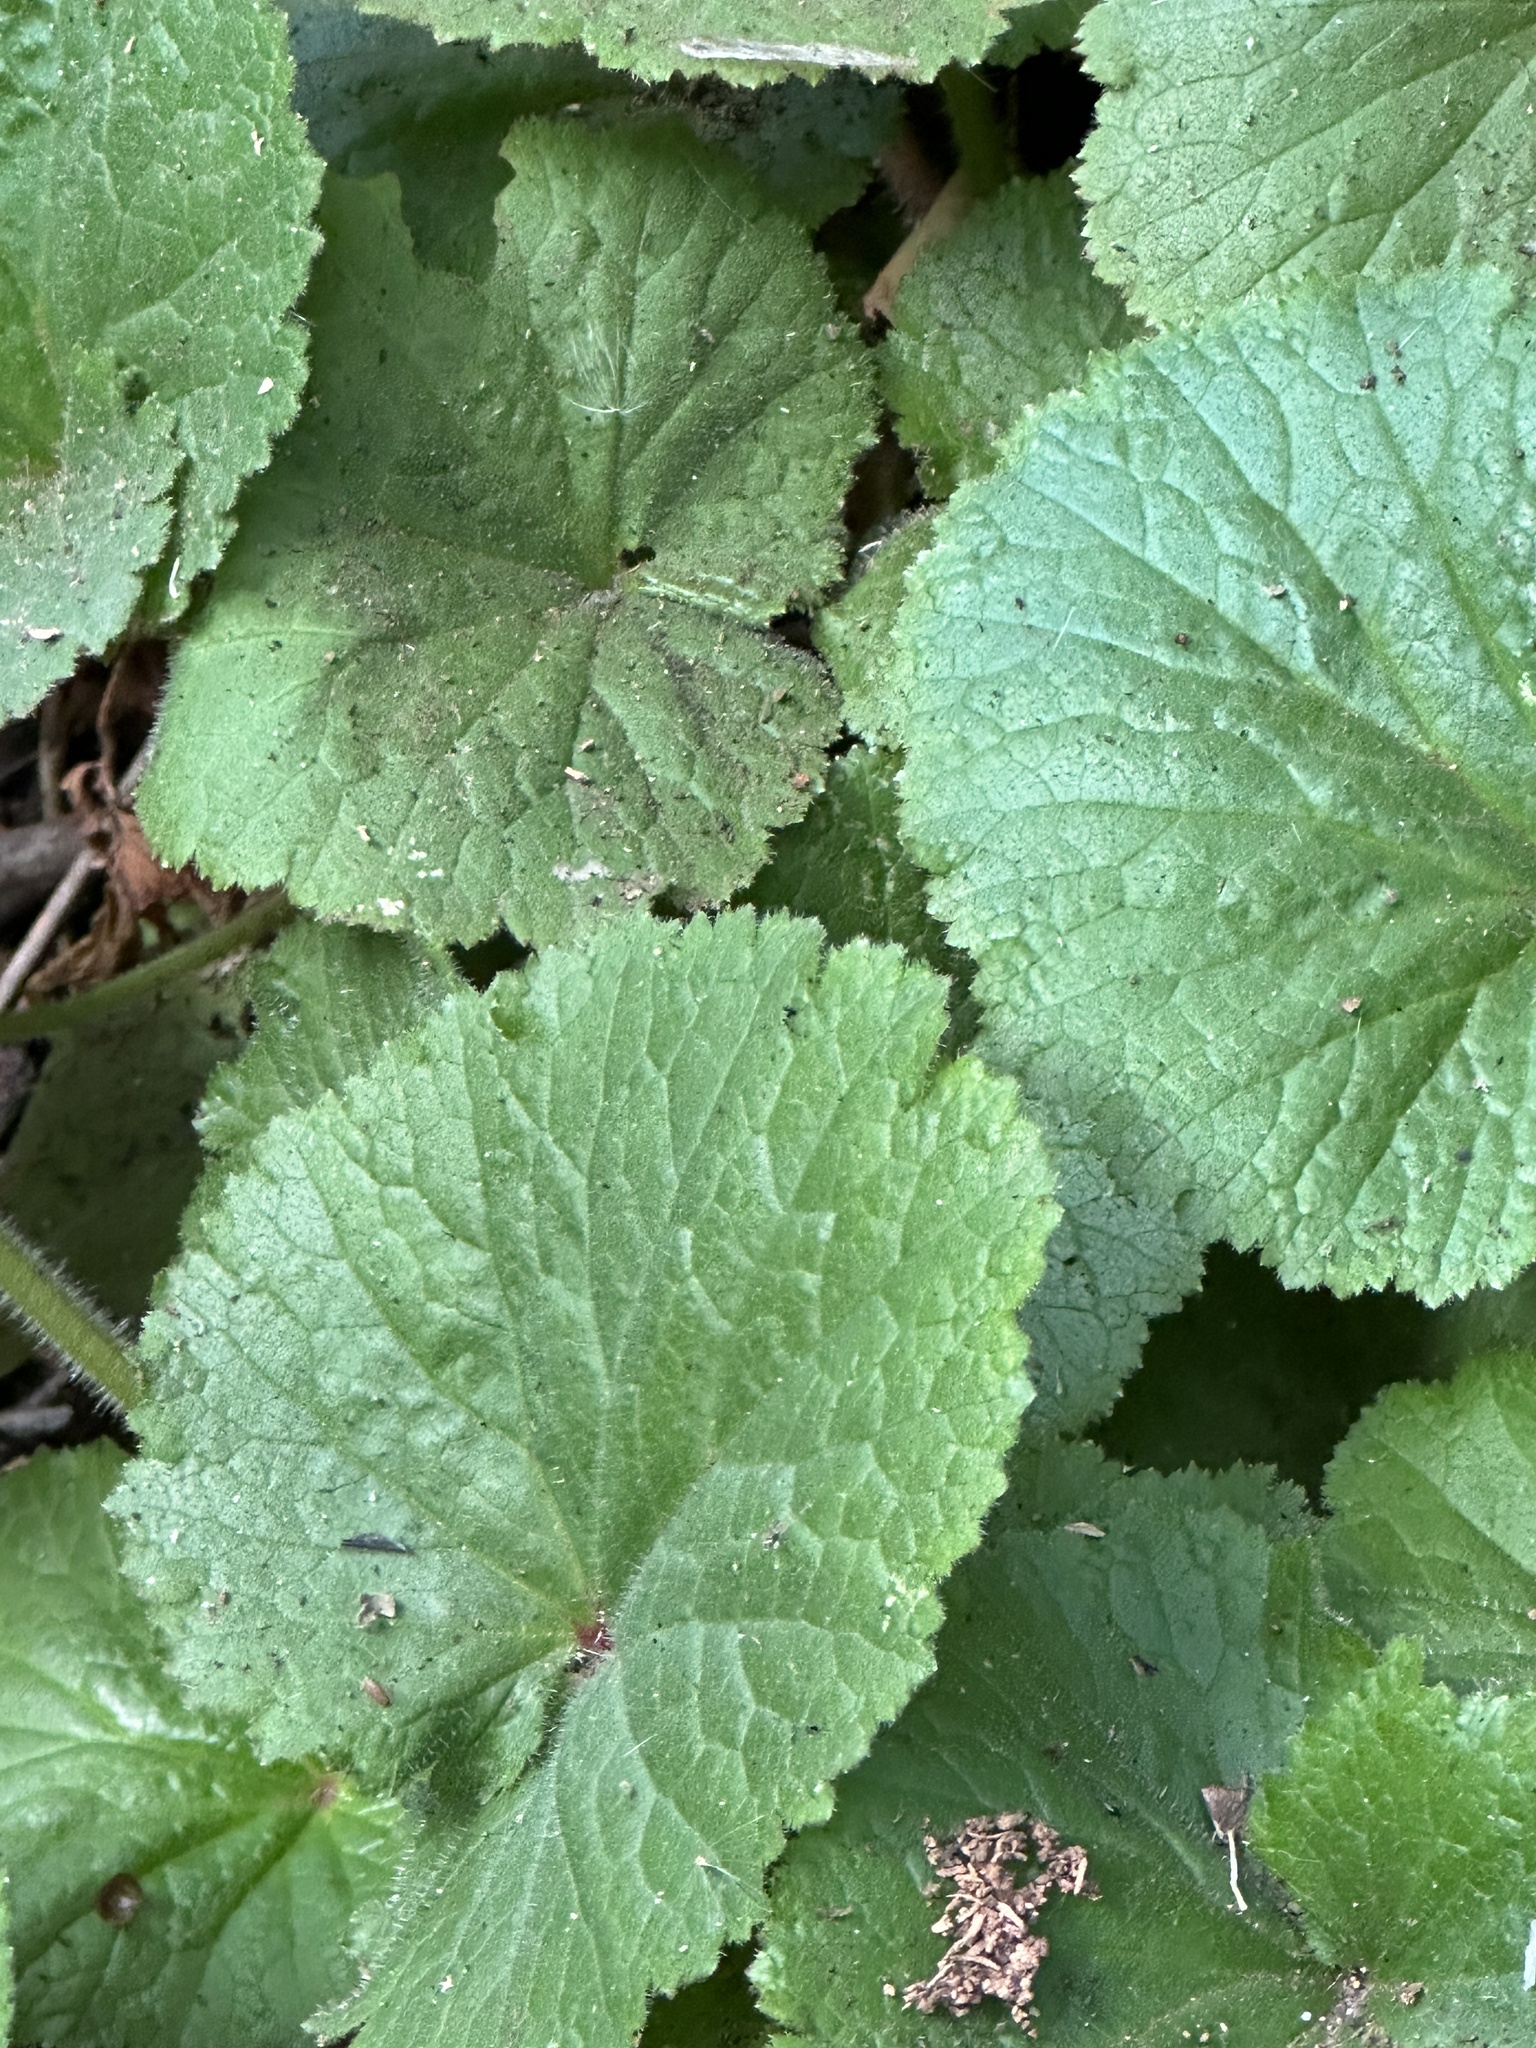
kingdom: Plantae
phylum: Tracheophyta
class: Magnoliopsida
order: Saxifragales
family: Saxifragaceae
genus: Boykinia
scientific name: Boykinia rotundifolia
